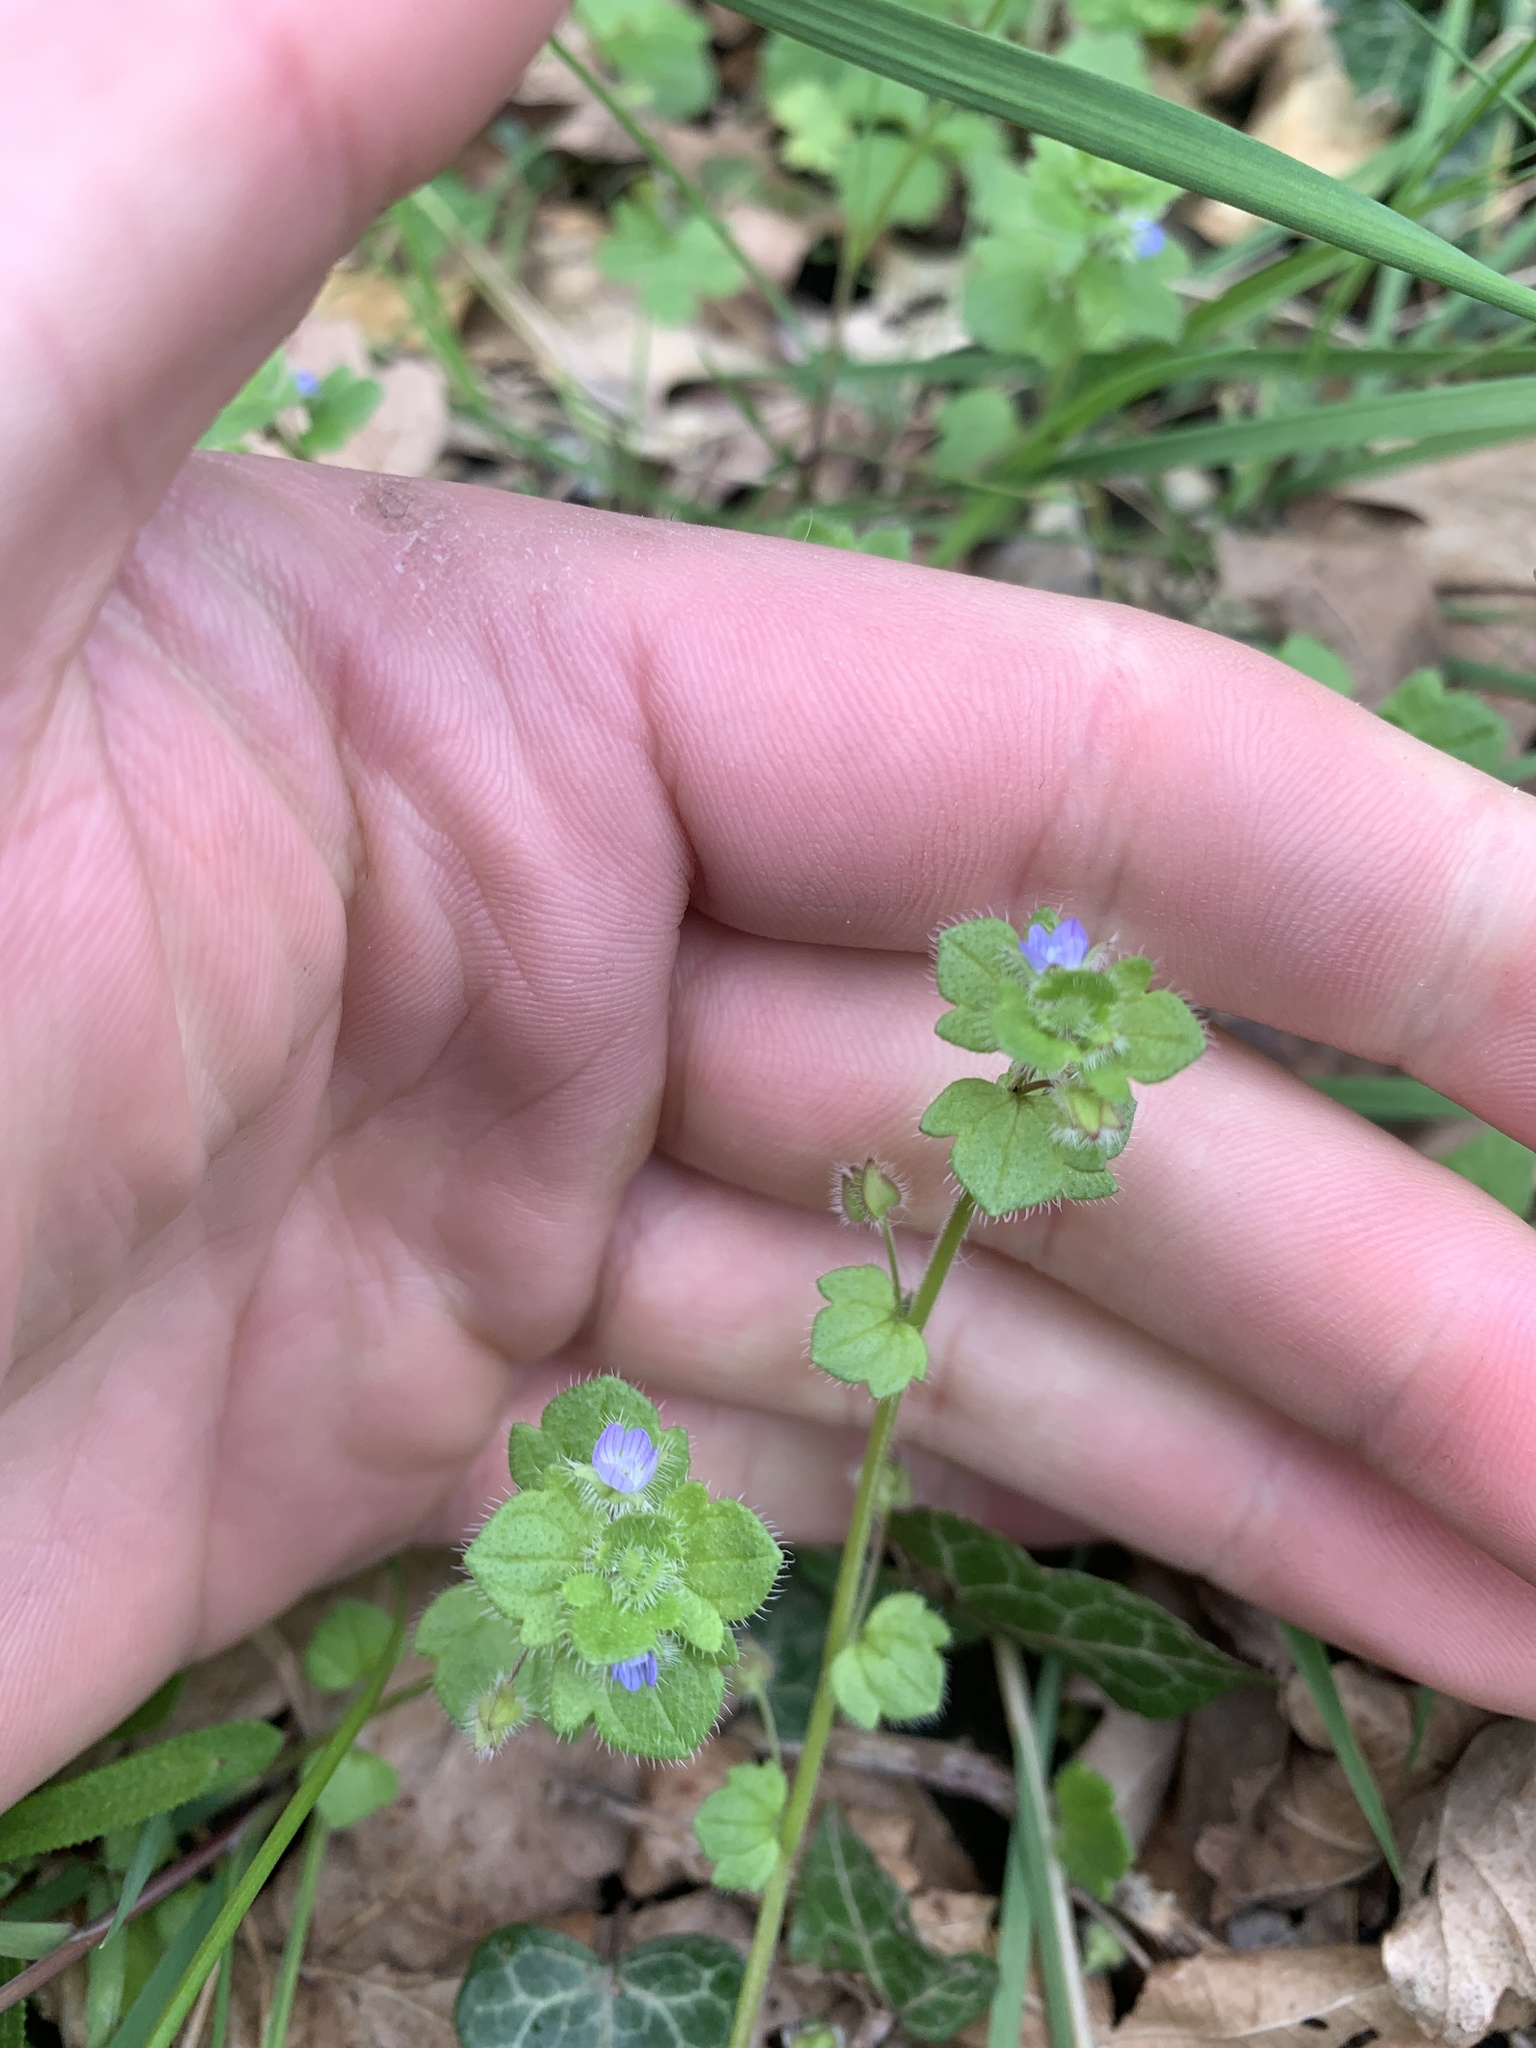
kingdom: Plantae
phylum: Tracheophyta
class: Magnoliopsida
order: Lamiales
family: Plantaginaceae
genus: Veronica
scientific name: Veronica hederifolia
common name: Ivy-leaved speedwell
